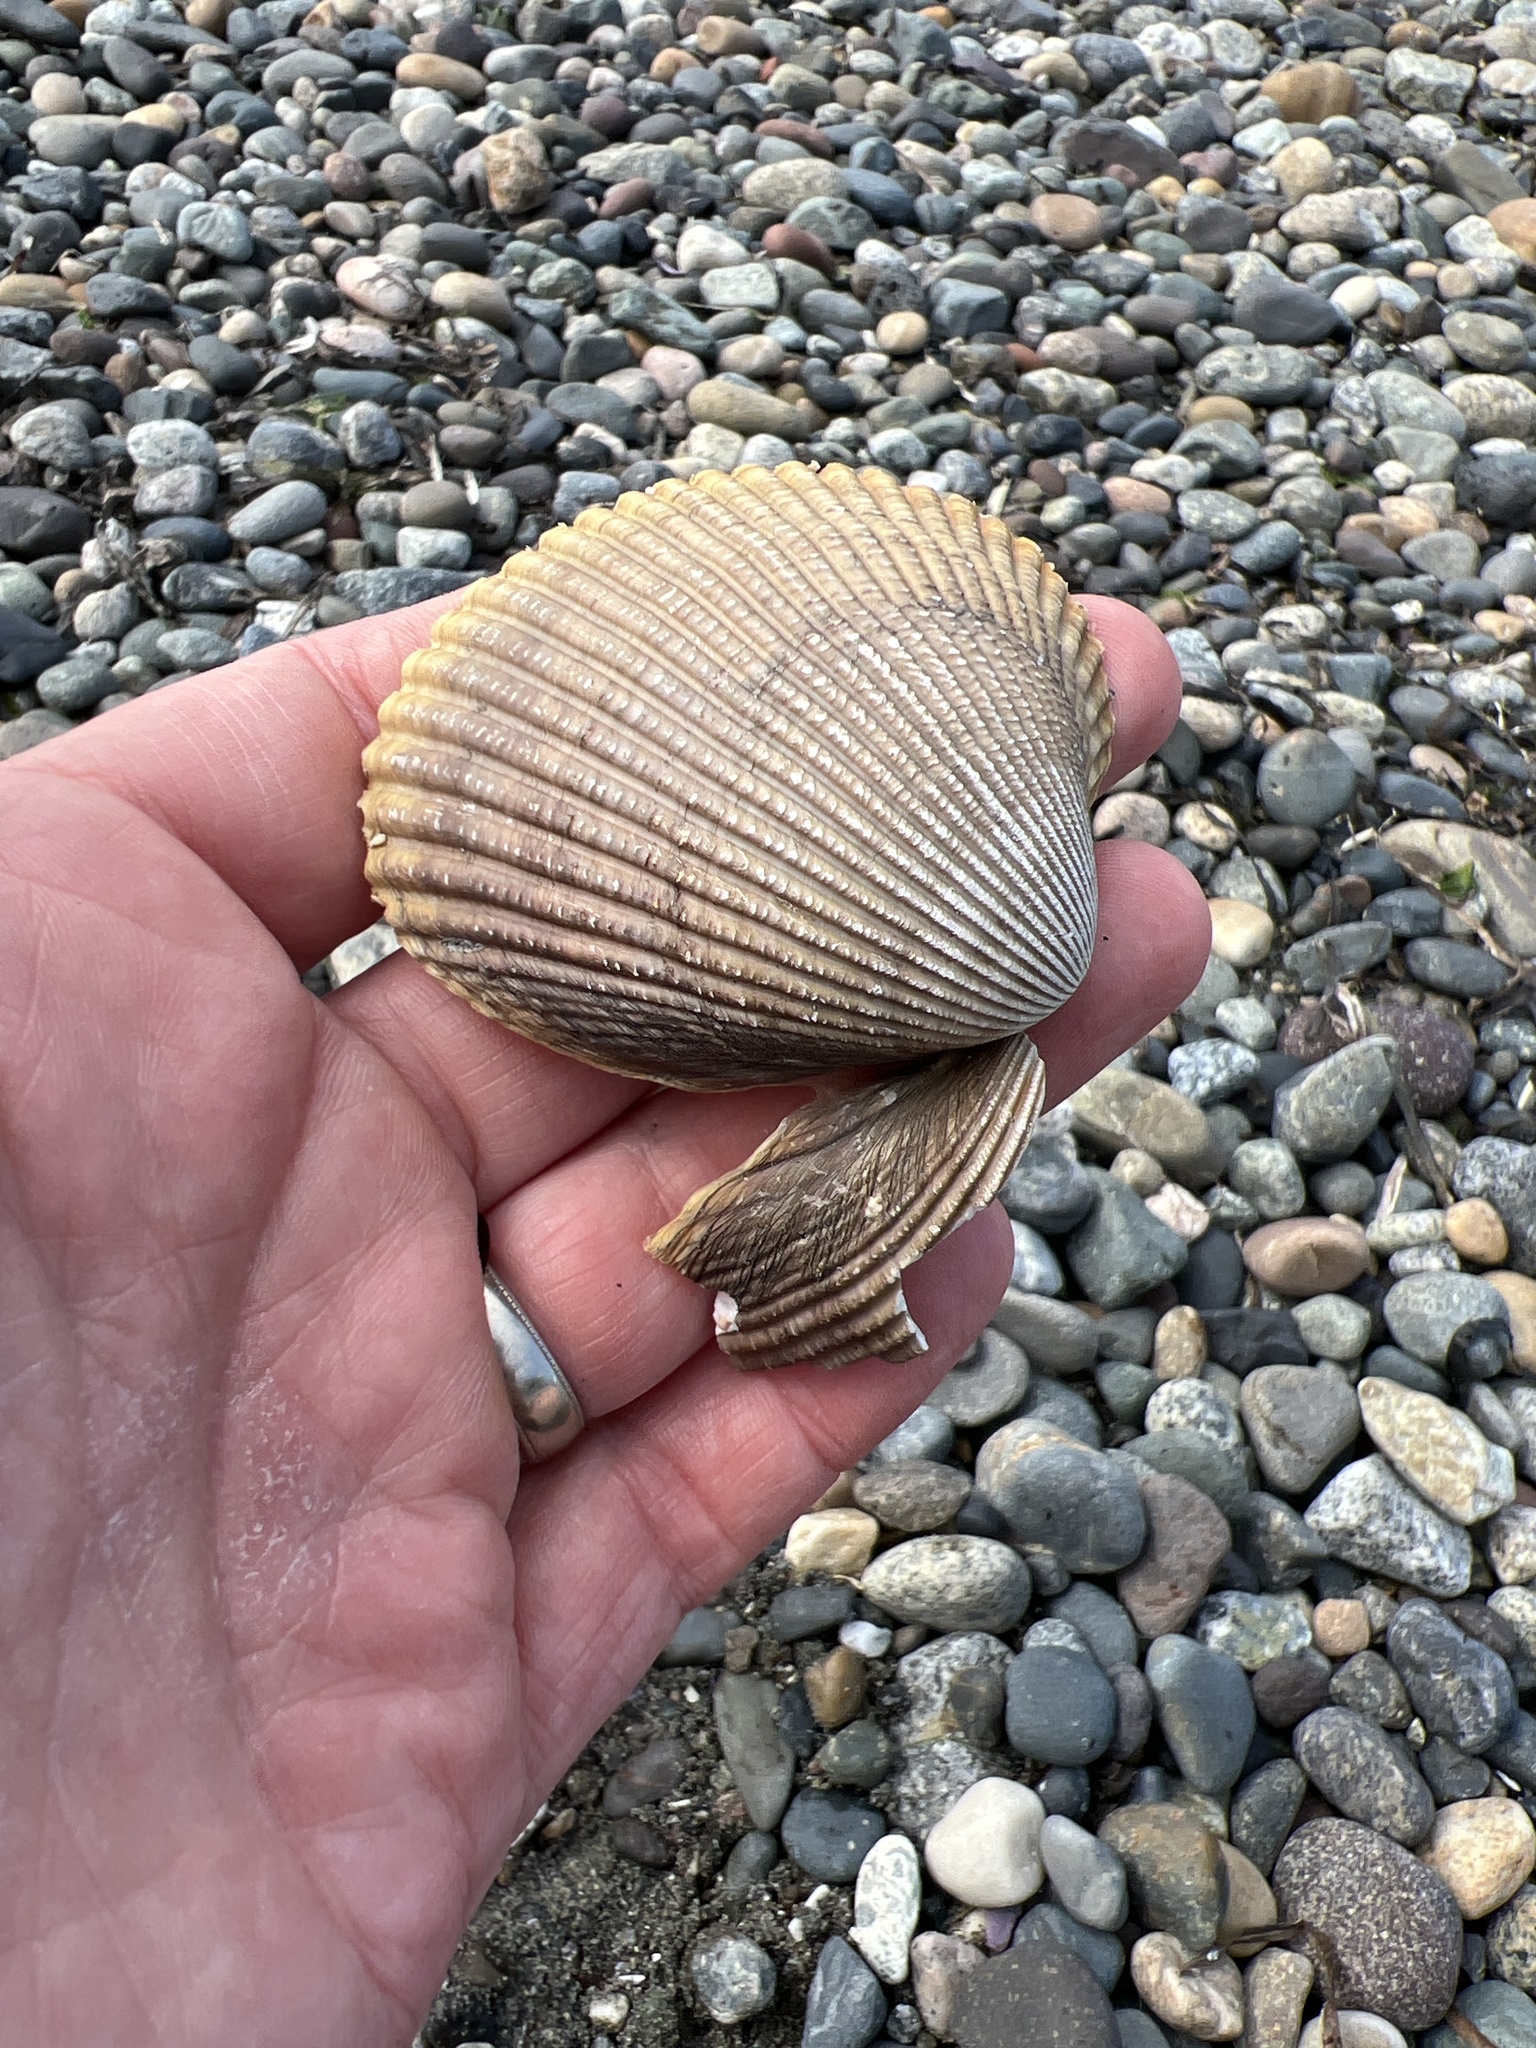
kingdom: Animalia
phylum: Mollusca
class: Bivalvia
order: Cardiida
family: Cardiidae
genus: Clinocardium
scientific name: Clinocardium nuttallii
